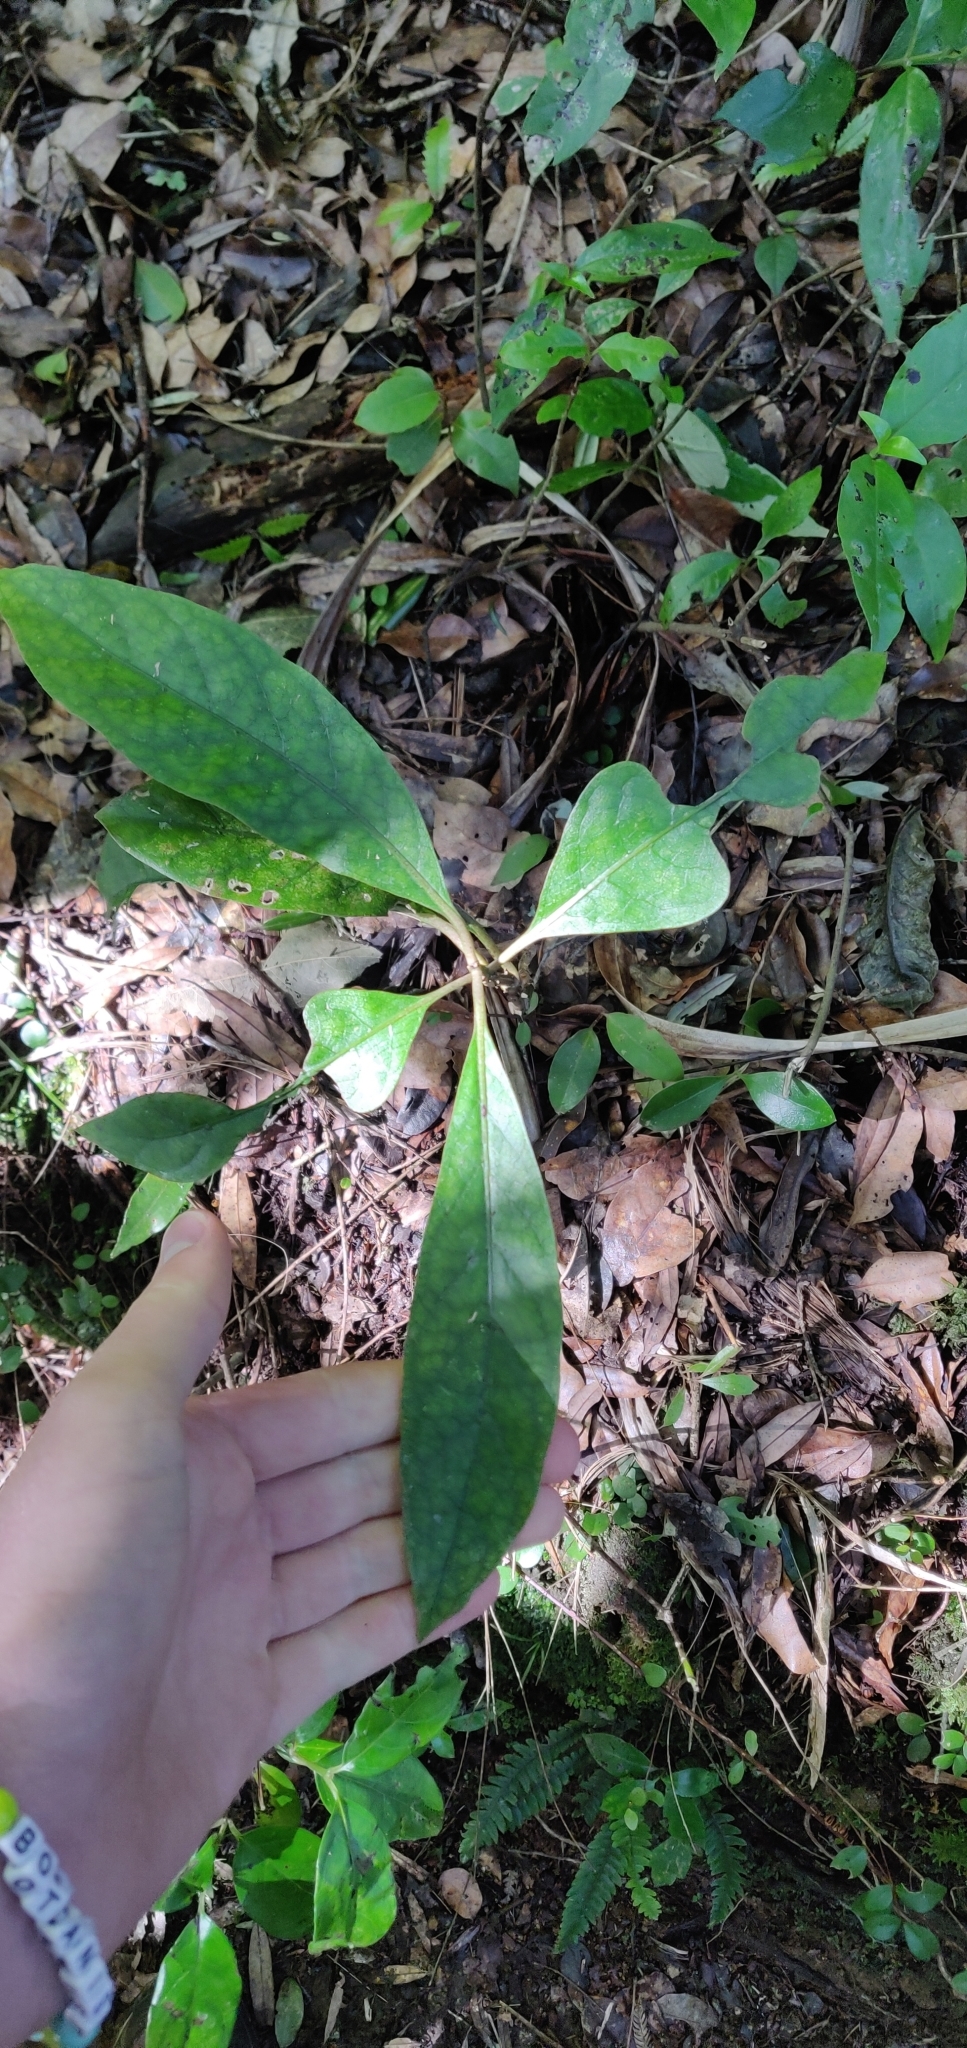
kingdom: Plantae
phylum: Tracheophyta
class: Magnoliopsida
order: Gentianales
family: Rubiaceae
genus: Coprosma
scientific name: Coprosma autumnalis
